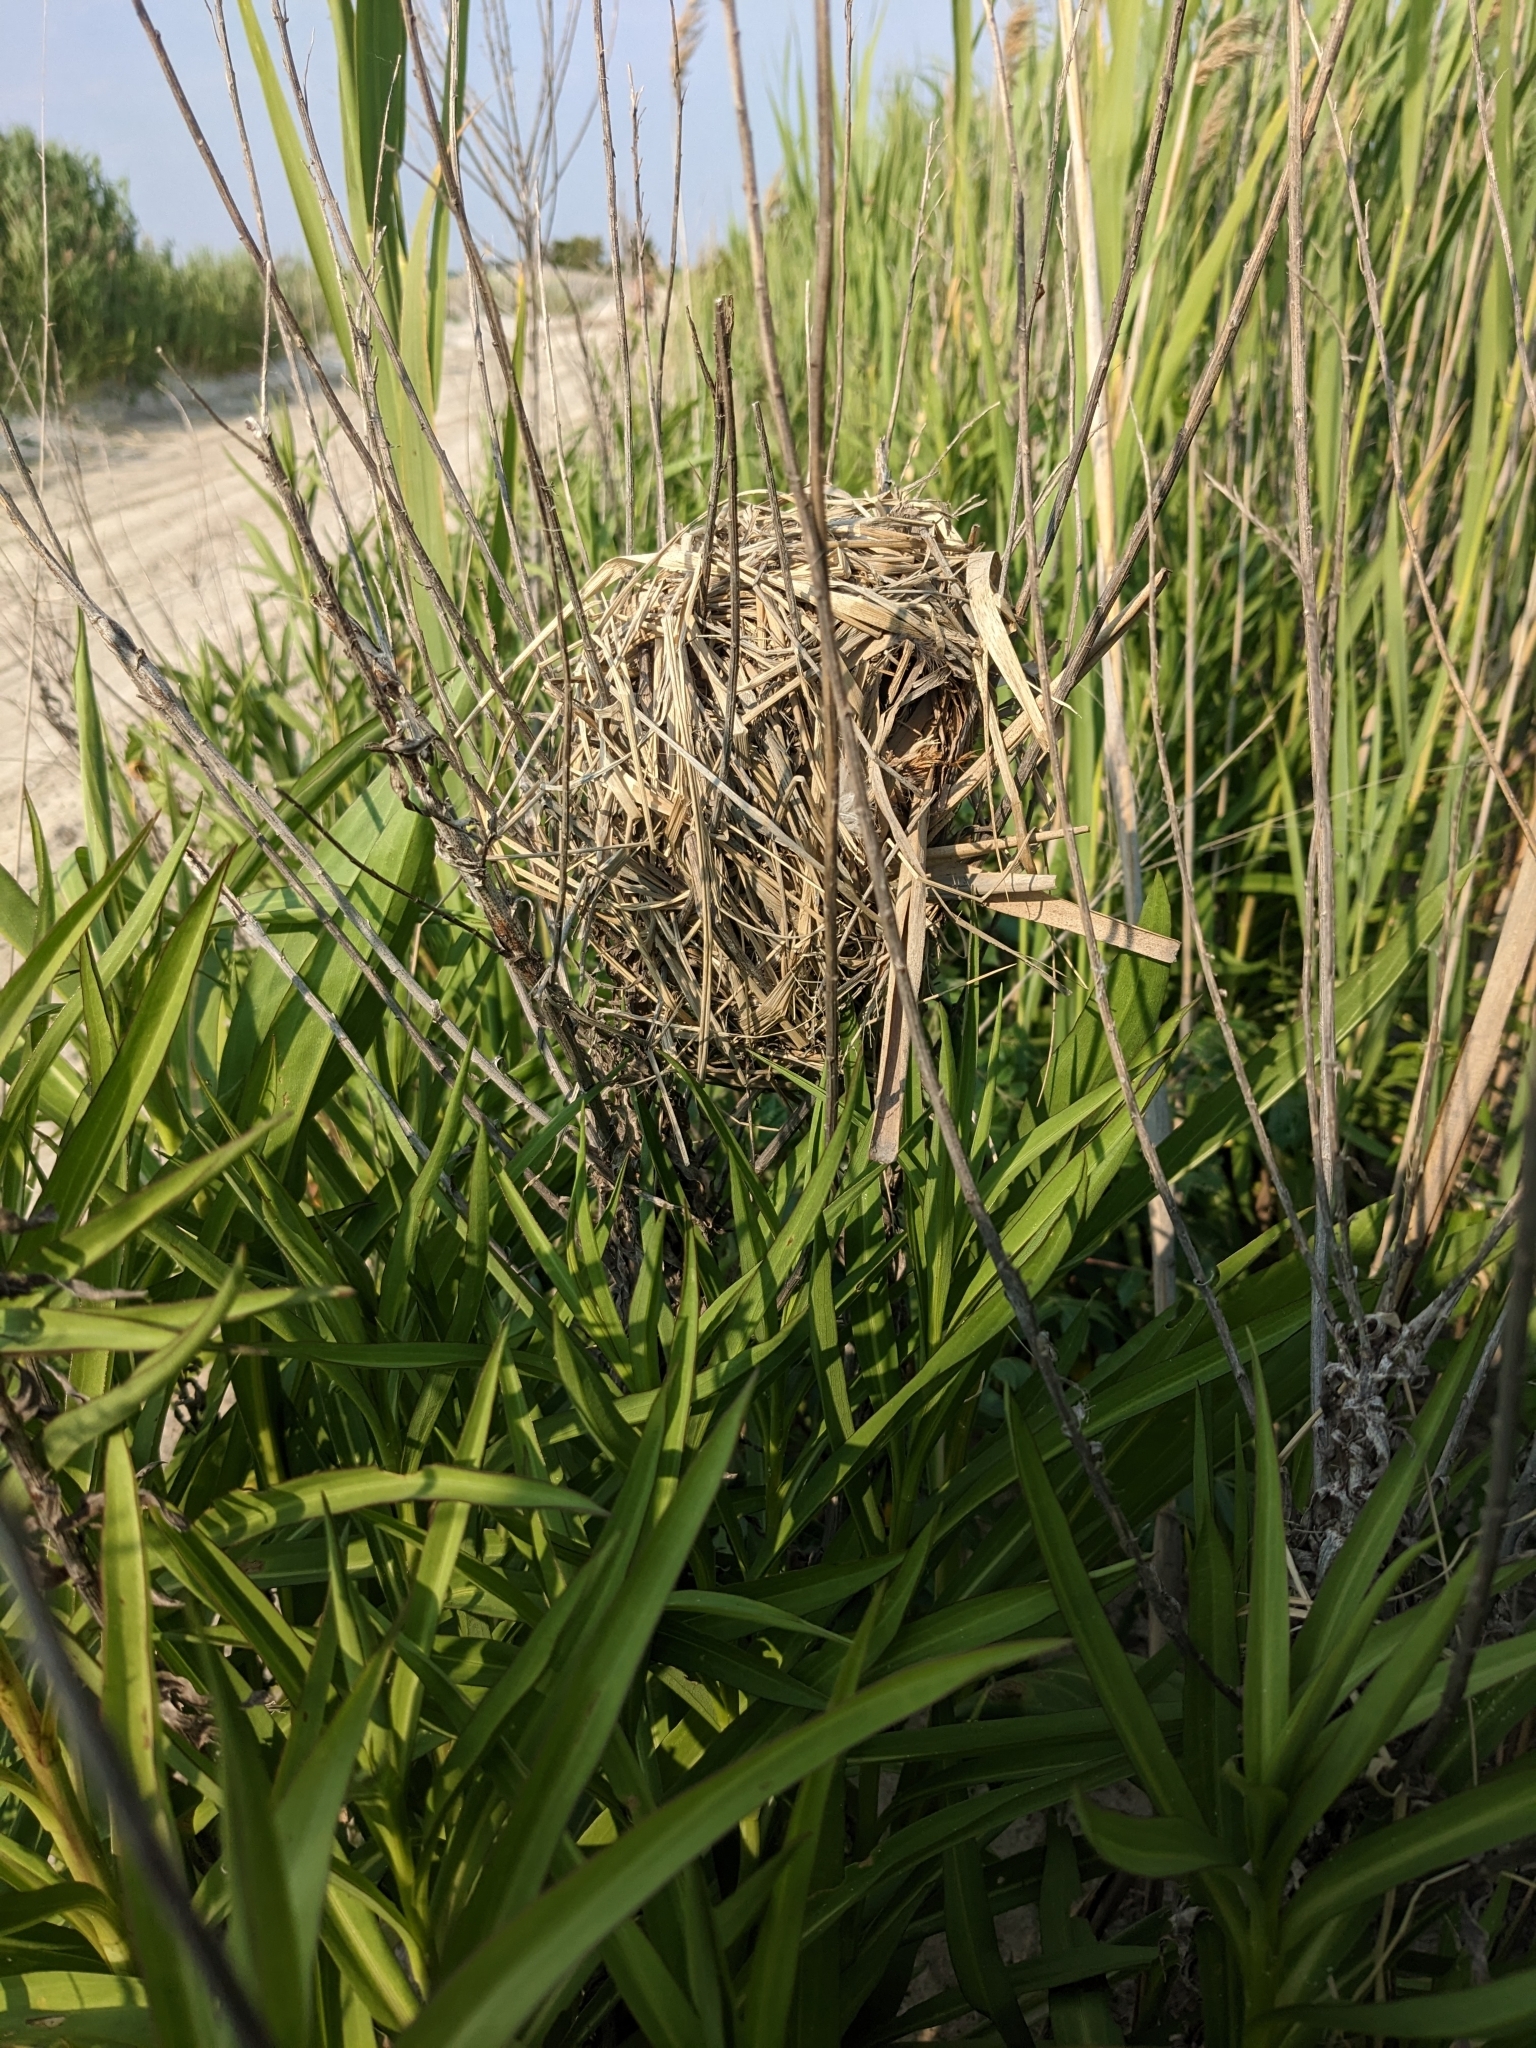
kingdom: Animalia
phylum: Chordata
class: Aves
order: Passeriformes
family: Troglodytidae
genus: Cistothorus
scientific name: Cistothorus palustris
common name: Marsh wren
